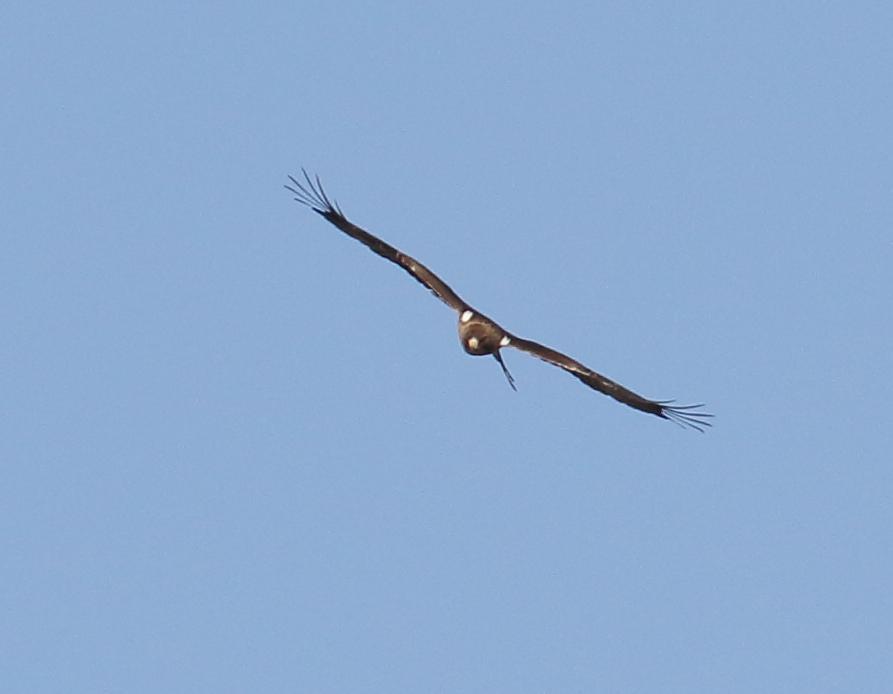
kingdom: Animalia
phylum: Chordata
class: Aves
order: Accipitriformes
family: Accipitridae
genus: Hieraaetus
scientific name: Hieraaetus pennatus
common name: Booted eagle
